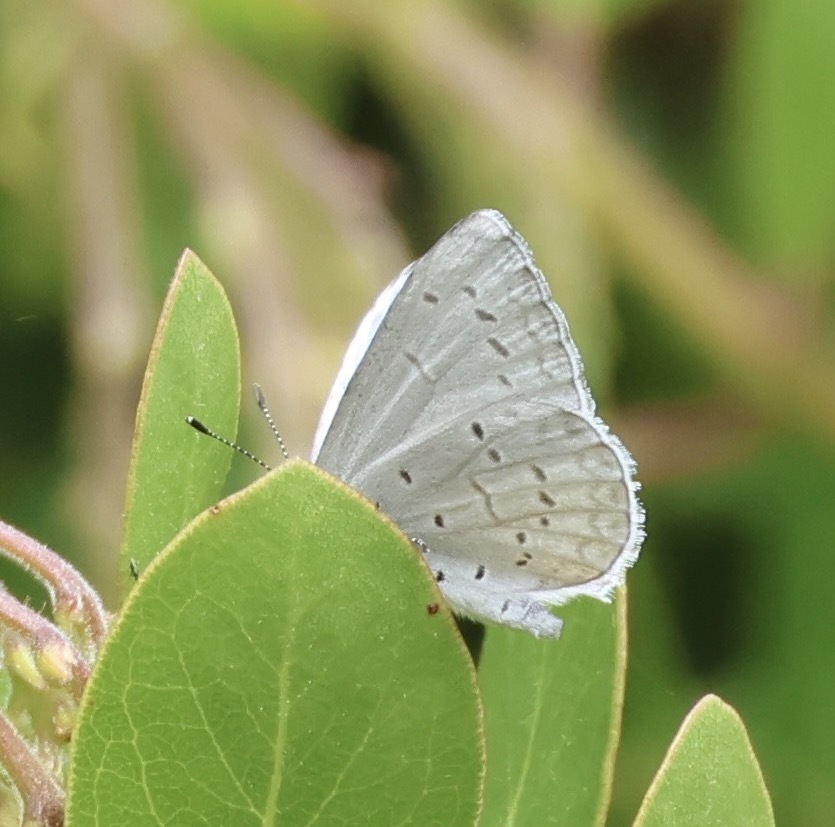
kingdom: Animalia
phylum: Arthropoda
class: Insecta
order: Lepidoptera
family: Lycaenidae
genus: Celastrina
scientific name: Celastrina ladon
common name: Spring azure
